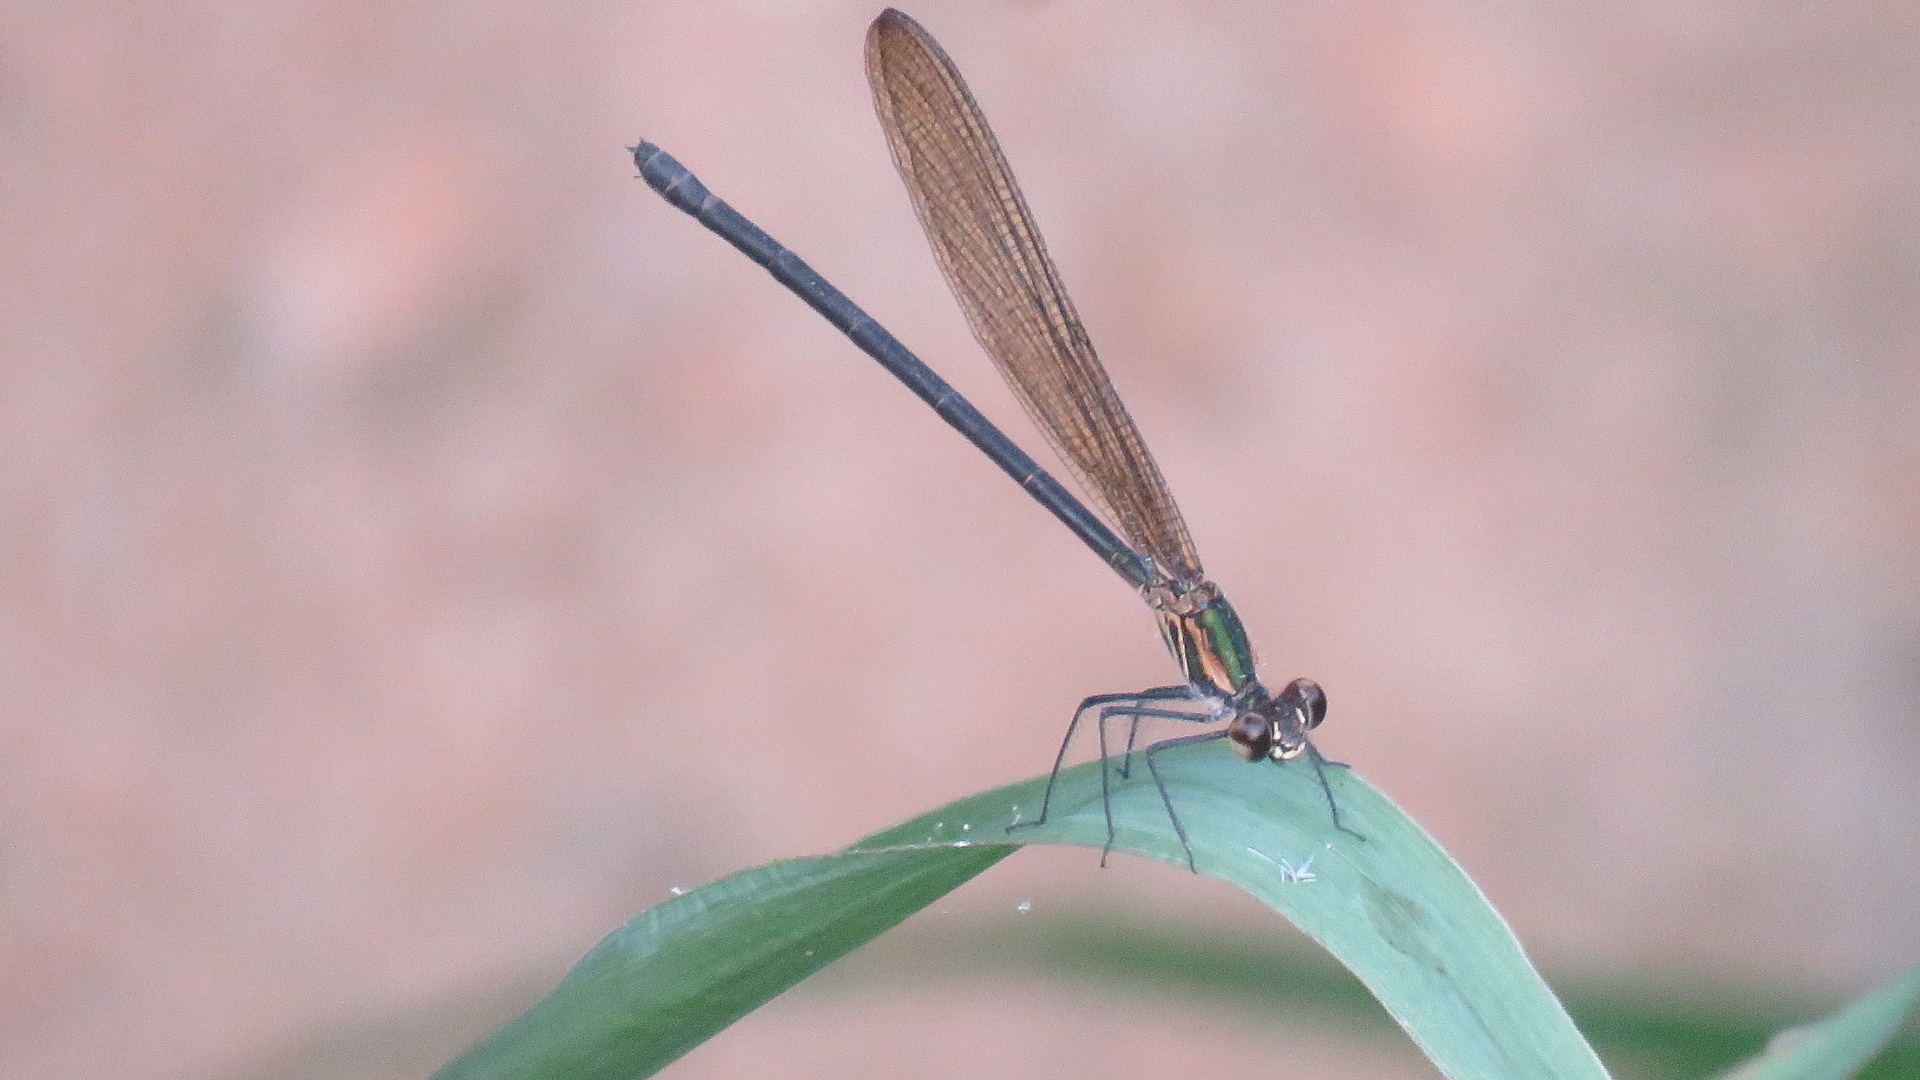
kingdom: Animalia
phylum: Arthropoda
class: Insecta
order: Odonata
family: Calopterygidae
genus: Hetaerina
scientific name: Hetaerina caja
